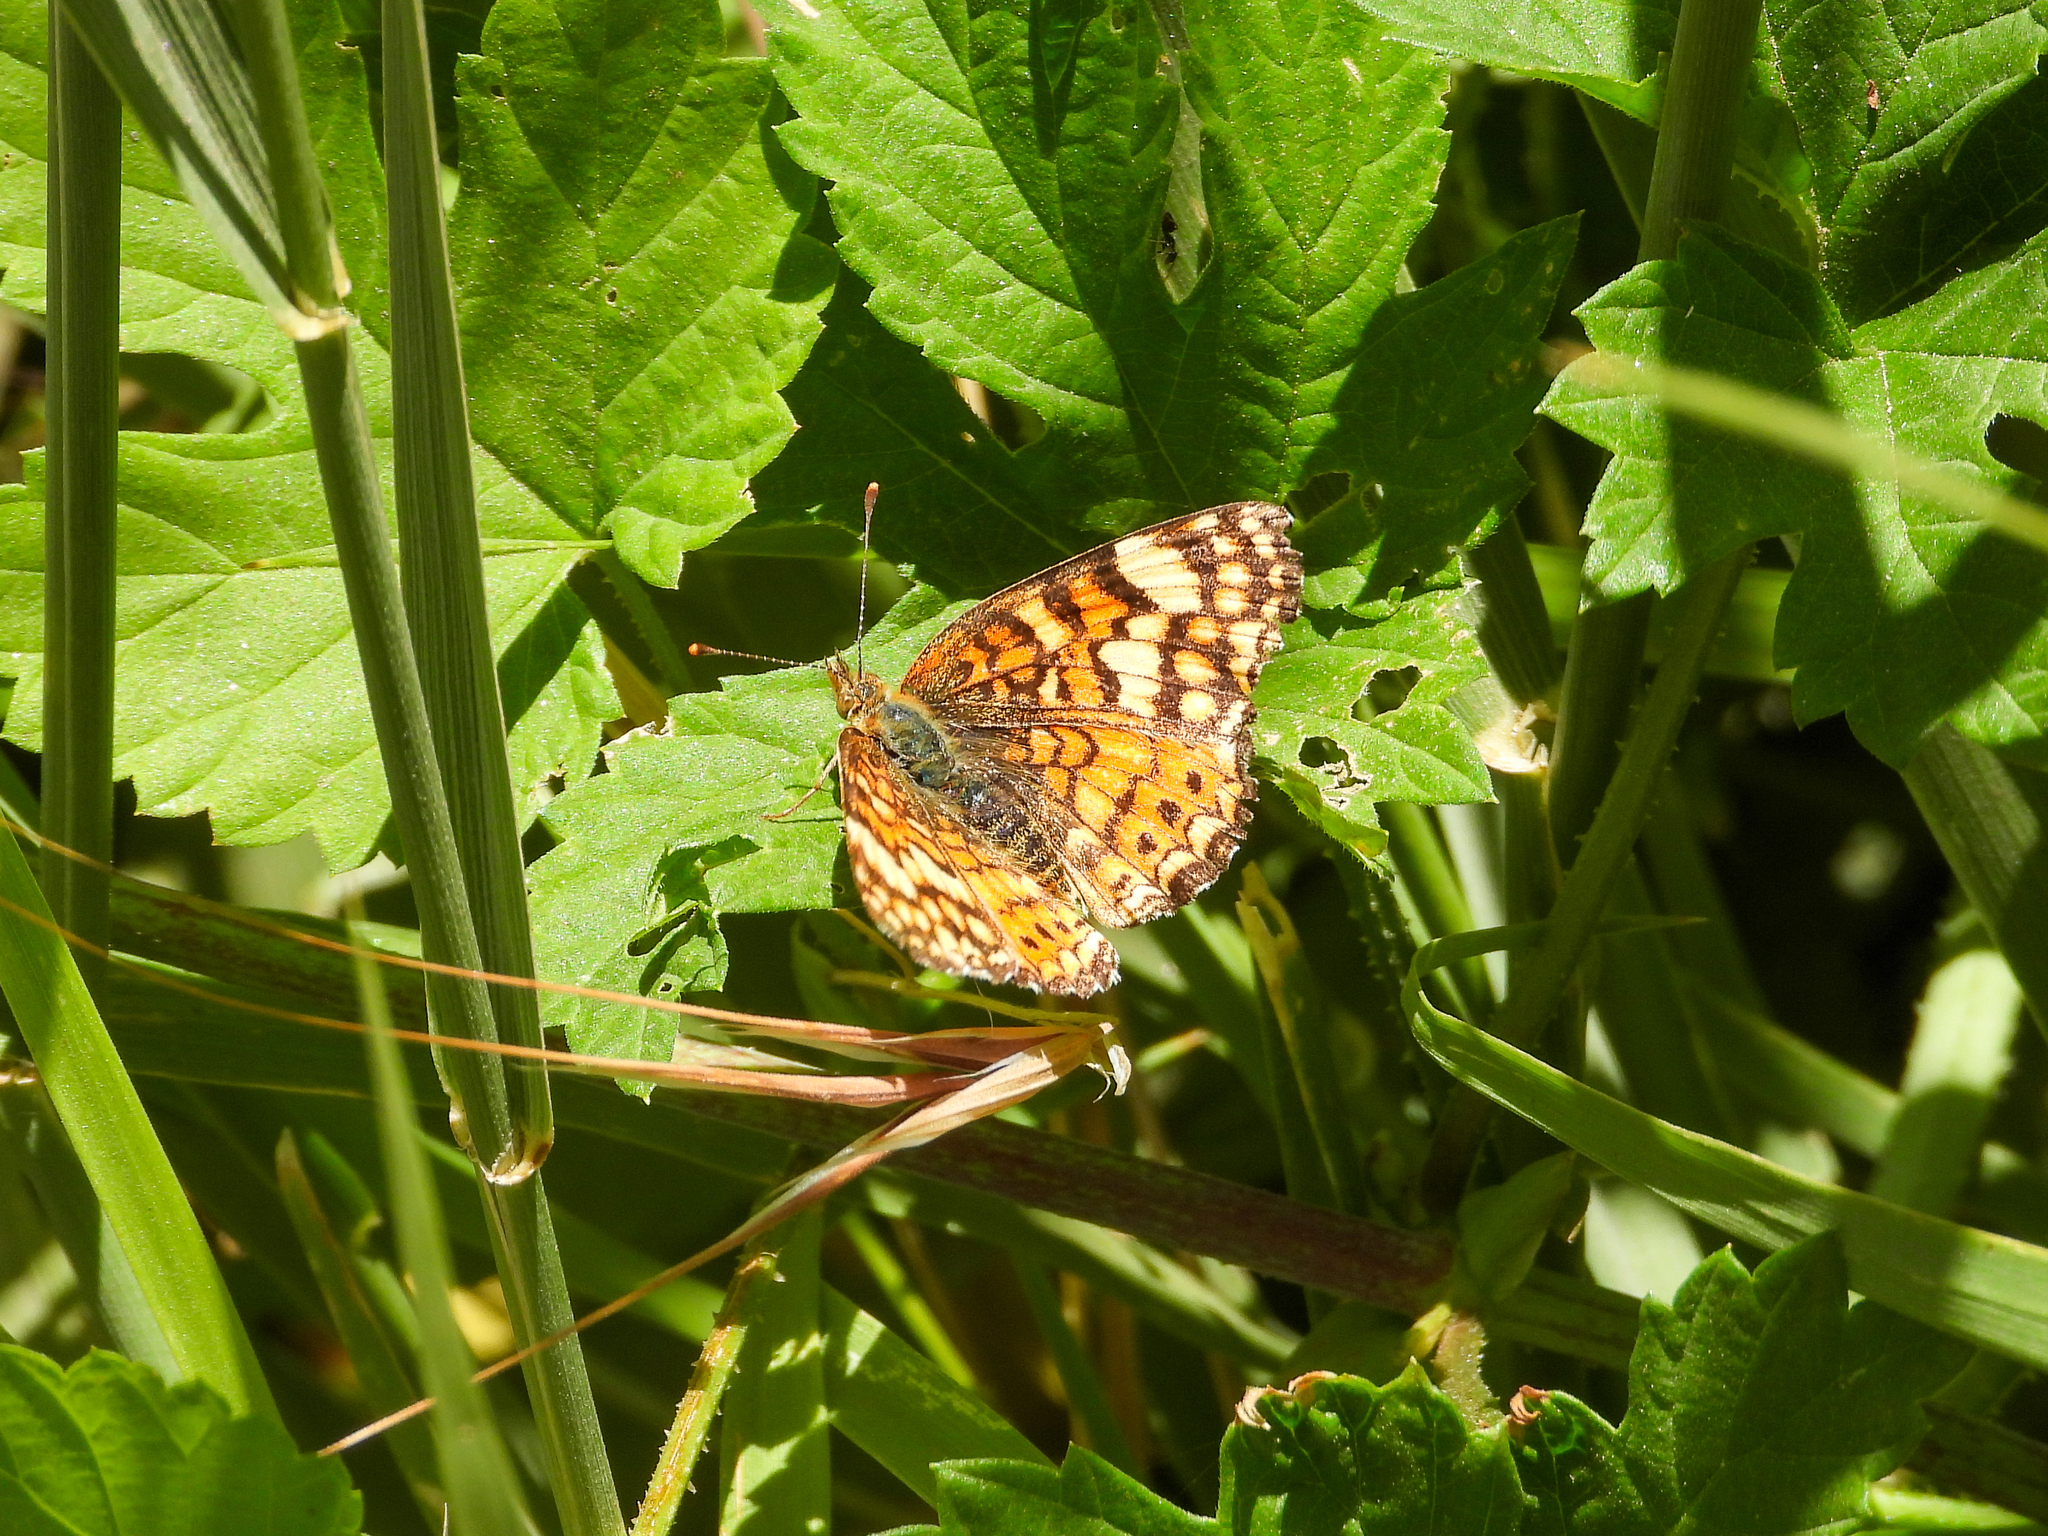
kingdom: Animalia
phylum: Arthropoda
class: Insecta
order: Lepidoptera
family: Nymphalidae
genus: Eresia
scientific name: Eresia aveyrona
